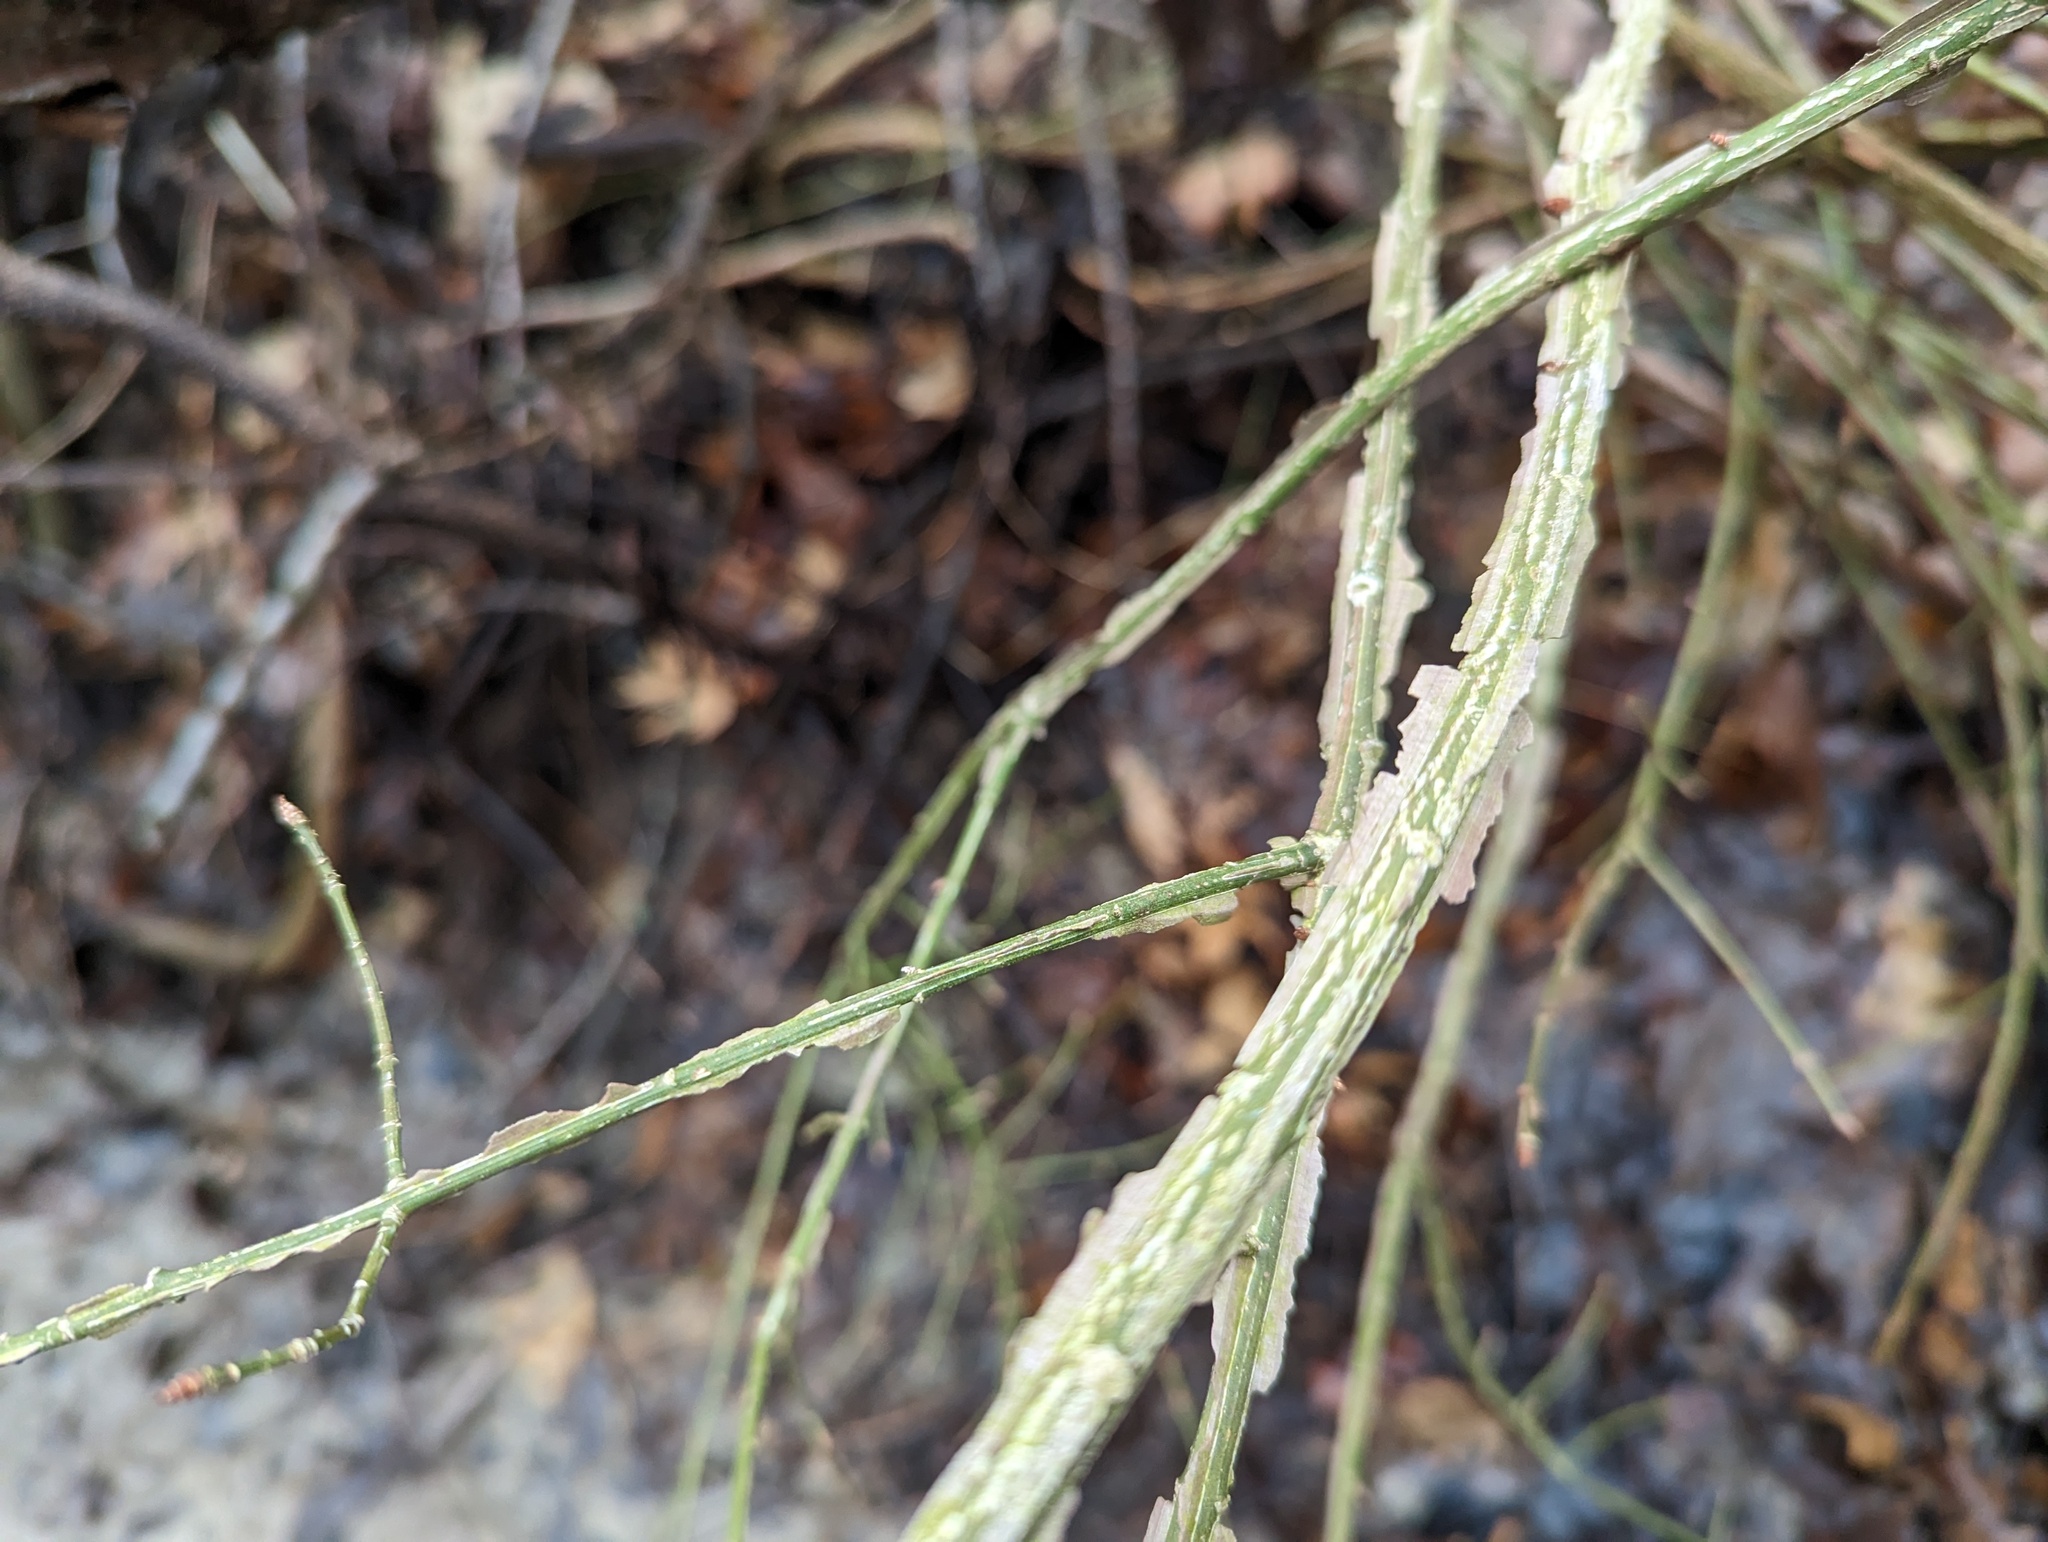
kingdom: Plantae
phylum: Tracheophyta
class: Magnoliopsida
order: Celastrales
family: Celastraceae
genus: Euonymus
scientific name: Euonymus alatus
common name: Winged euonymus
